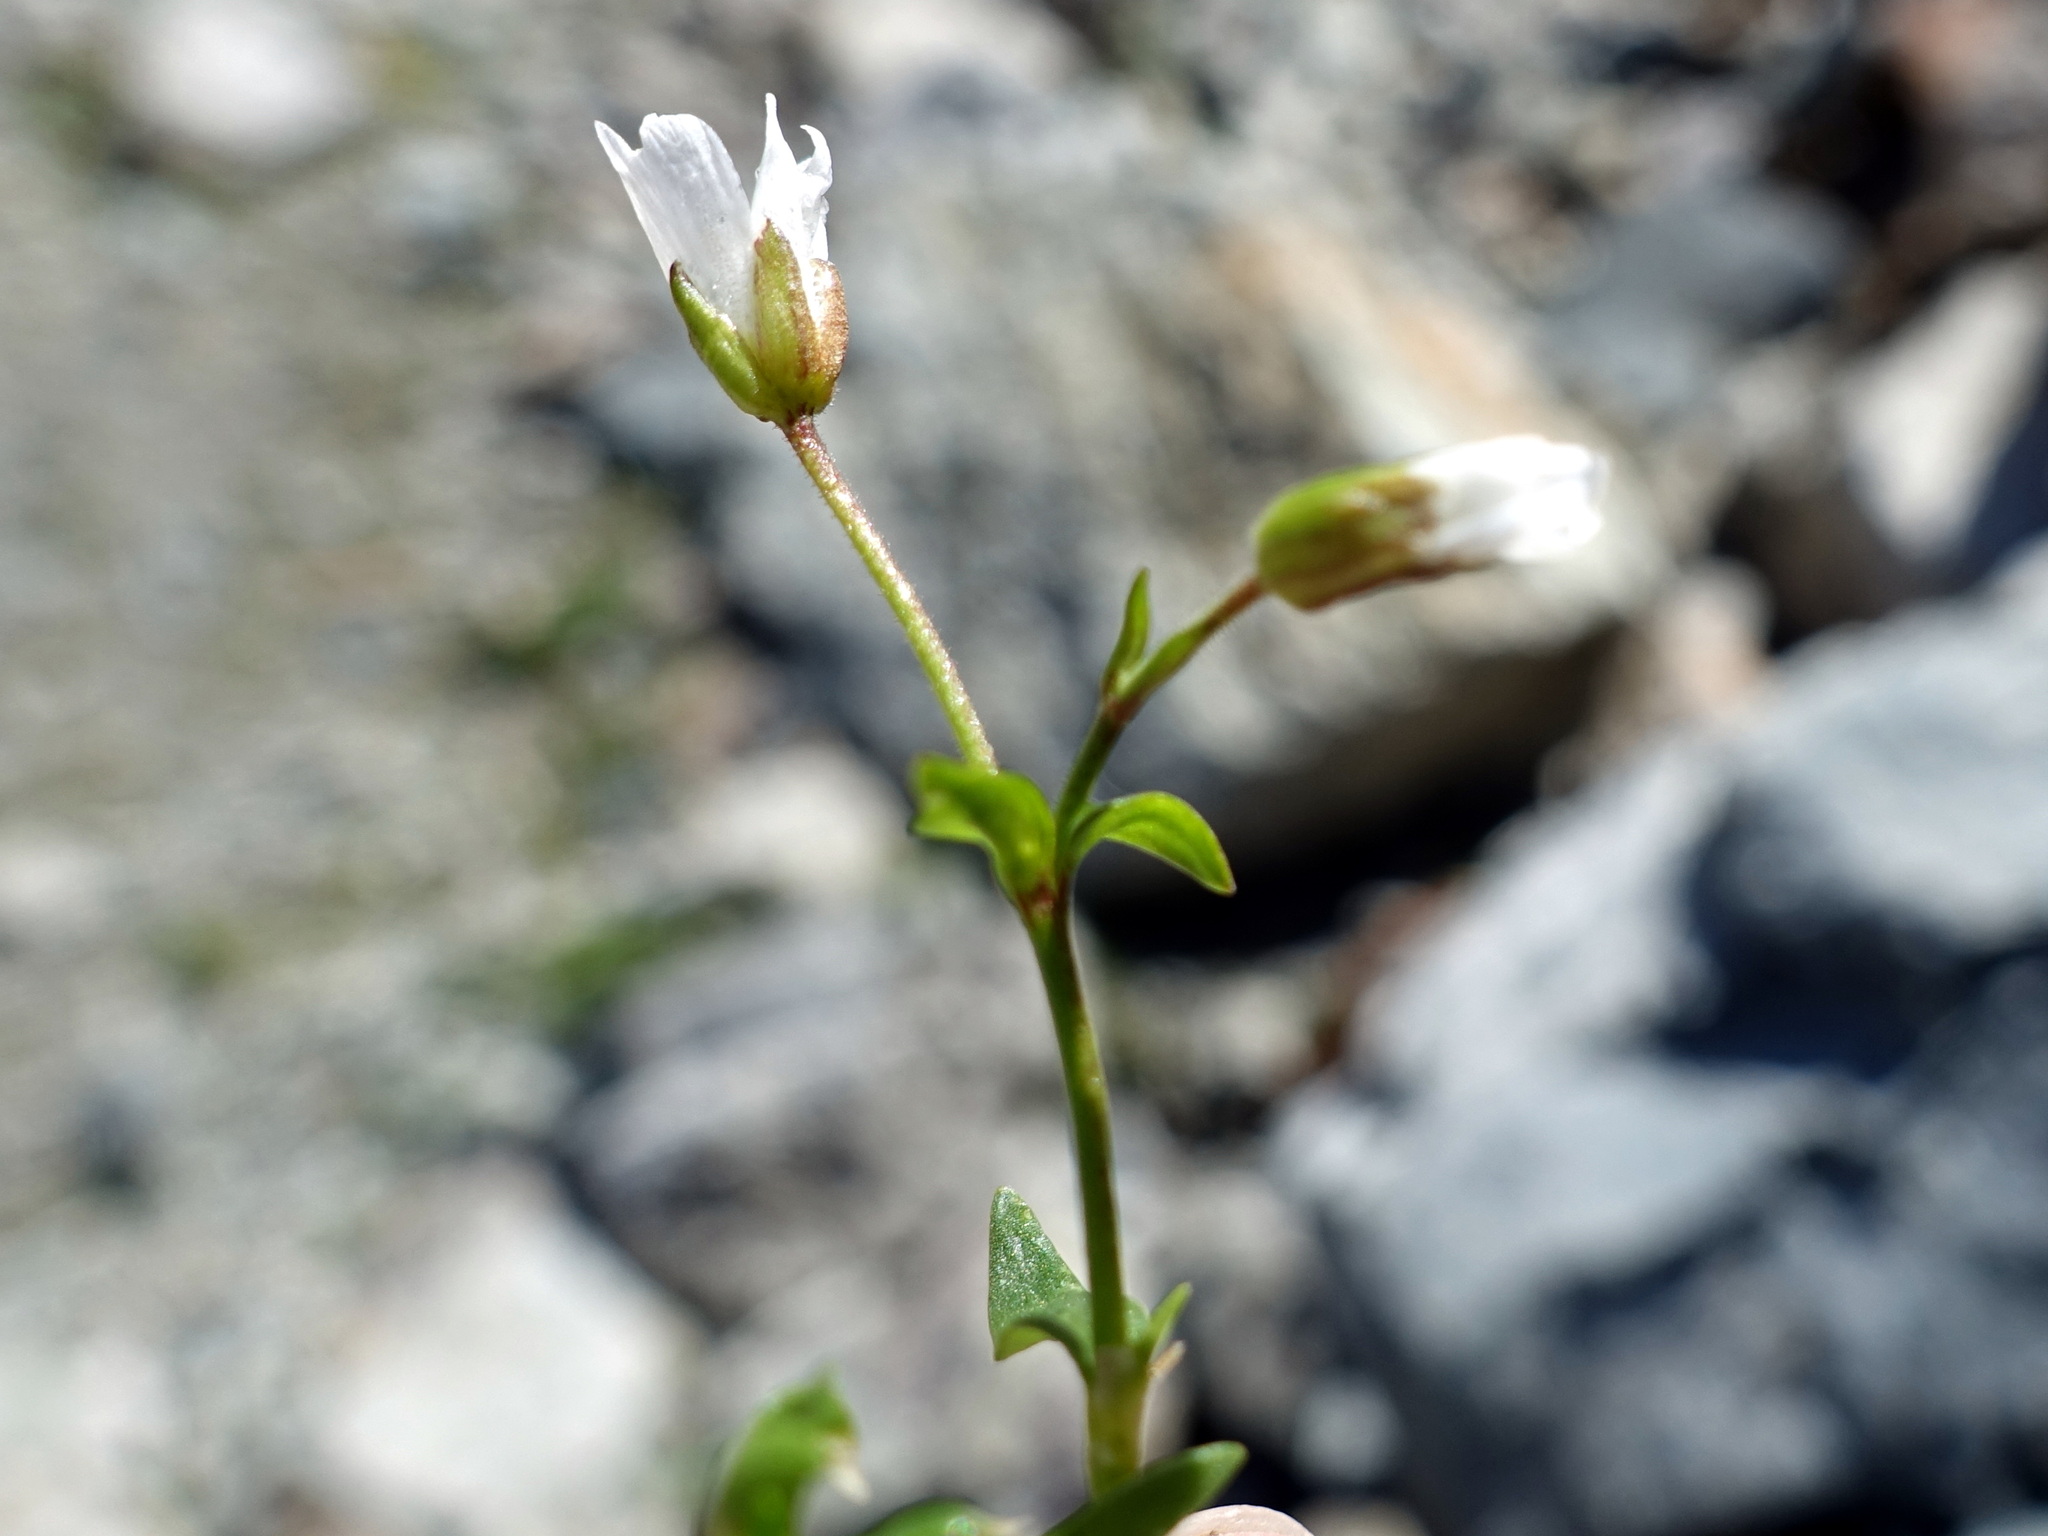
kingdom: Plantae
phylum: Tracheophyta
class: Magnoliopsida
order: Caryophyllales
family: Caryophyllaceae
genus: Dichodon
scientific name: Dichodon cerastoides
